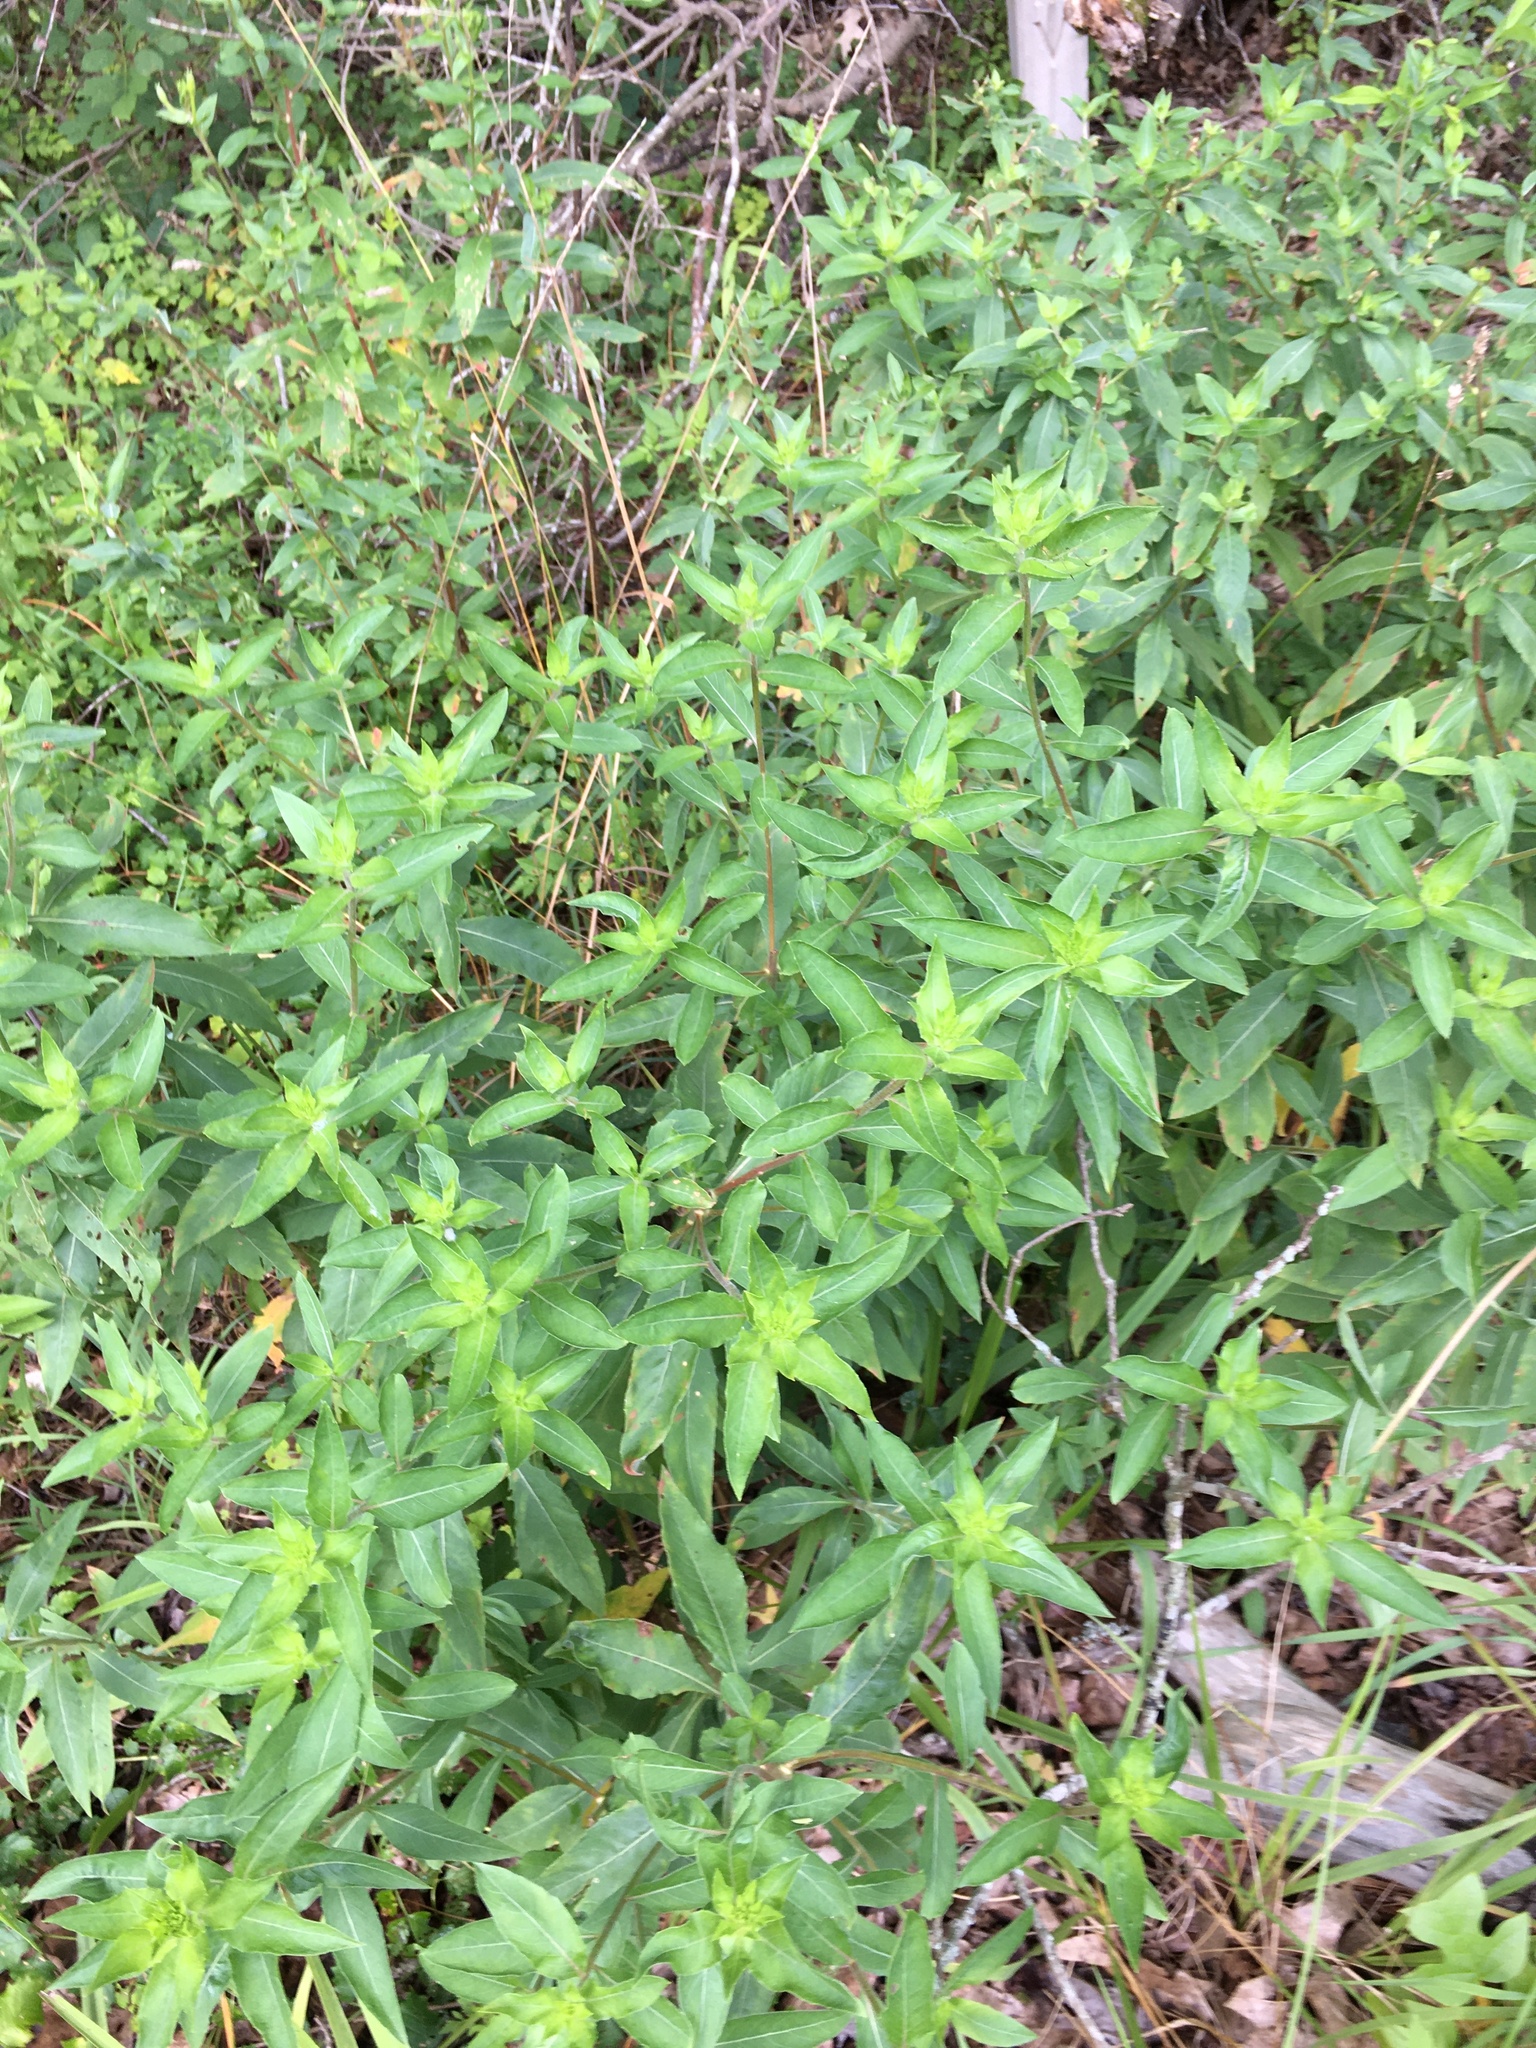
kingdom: Plantae
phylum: Tracheophyta
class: Magnoliopsida
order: Myrtales
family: Onagraceae
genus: Oenothera
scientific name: Oenothera biennis
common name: Common evening-primrose
